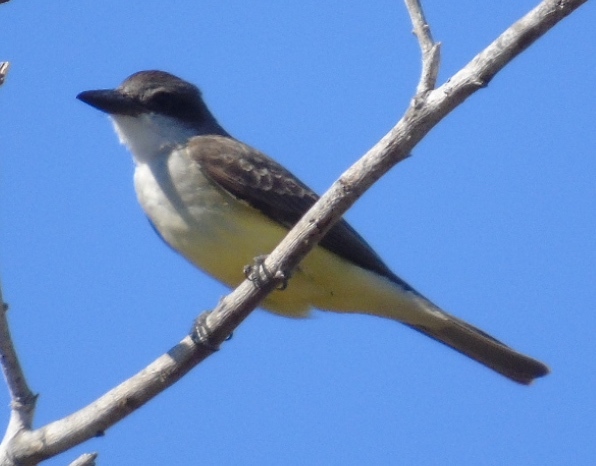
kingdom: Animalia
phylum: Chordata
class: Aves
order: Passeriformes
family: Tyrannidae
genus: Tyrannus
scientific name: Tyrannus crassirostris
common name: Thick-billed kingbird
